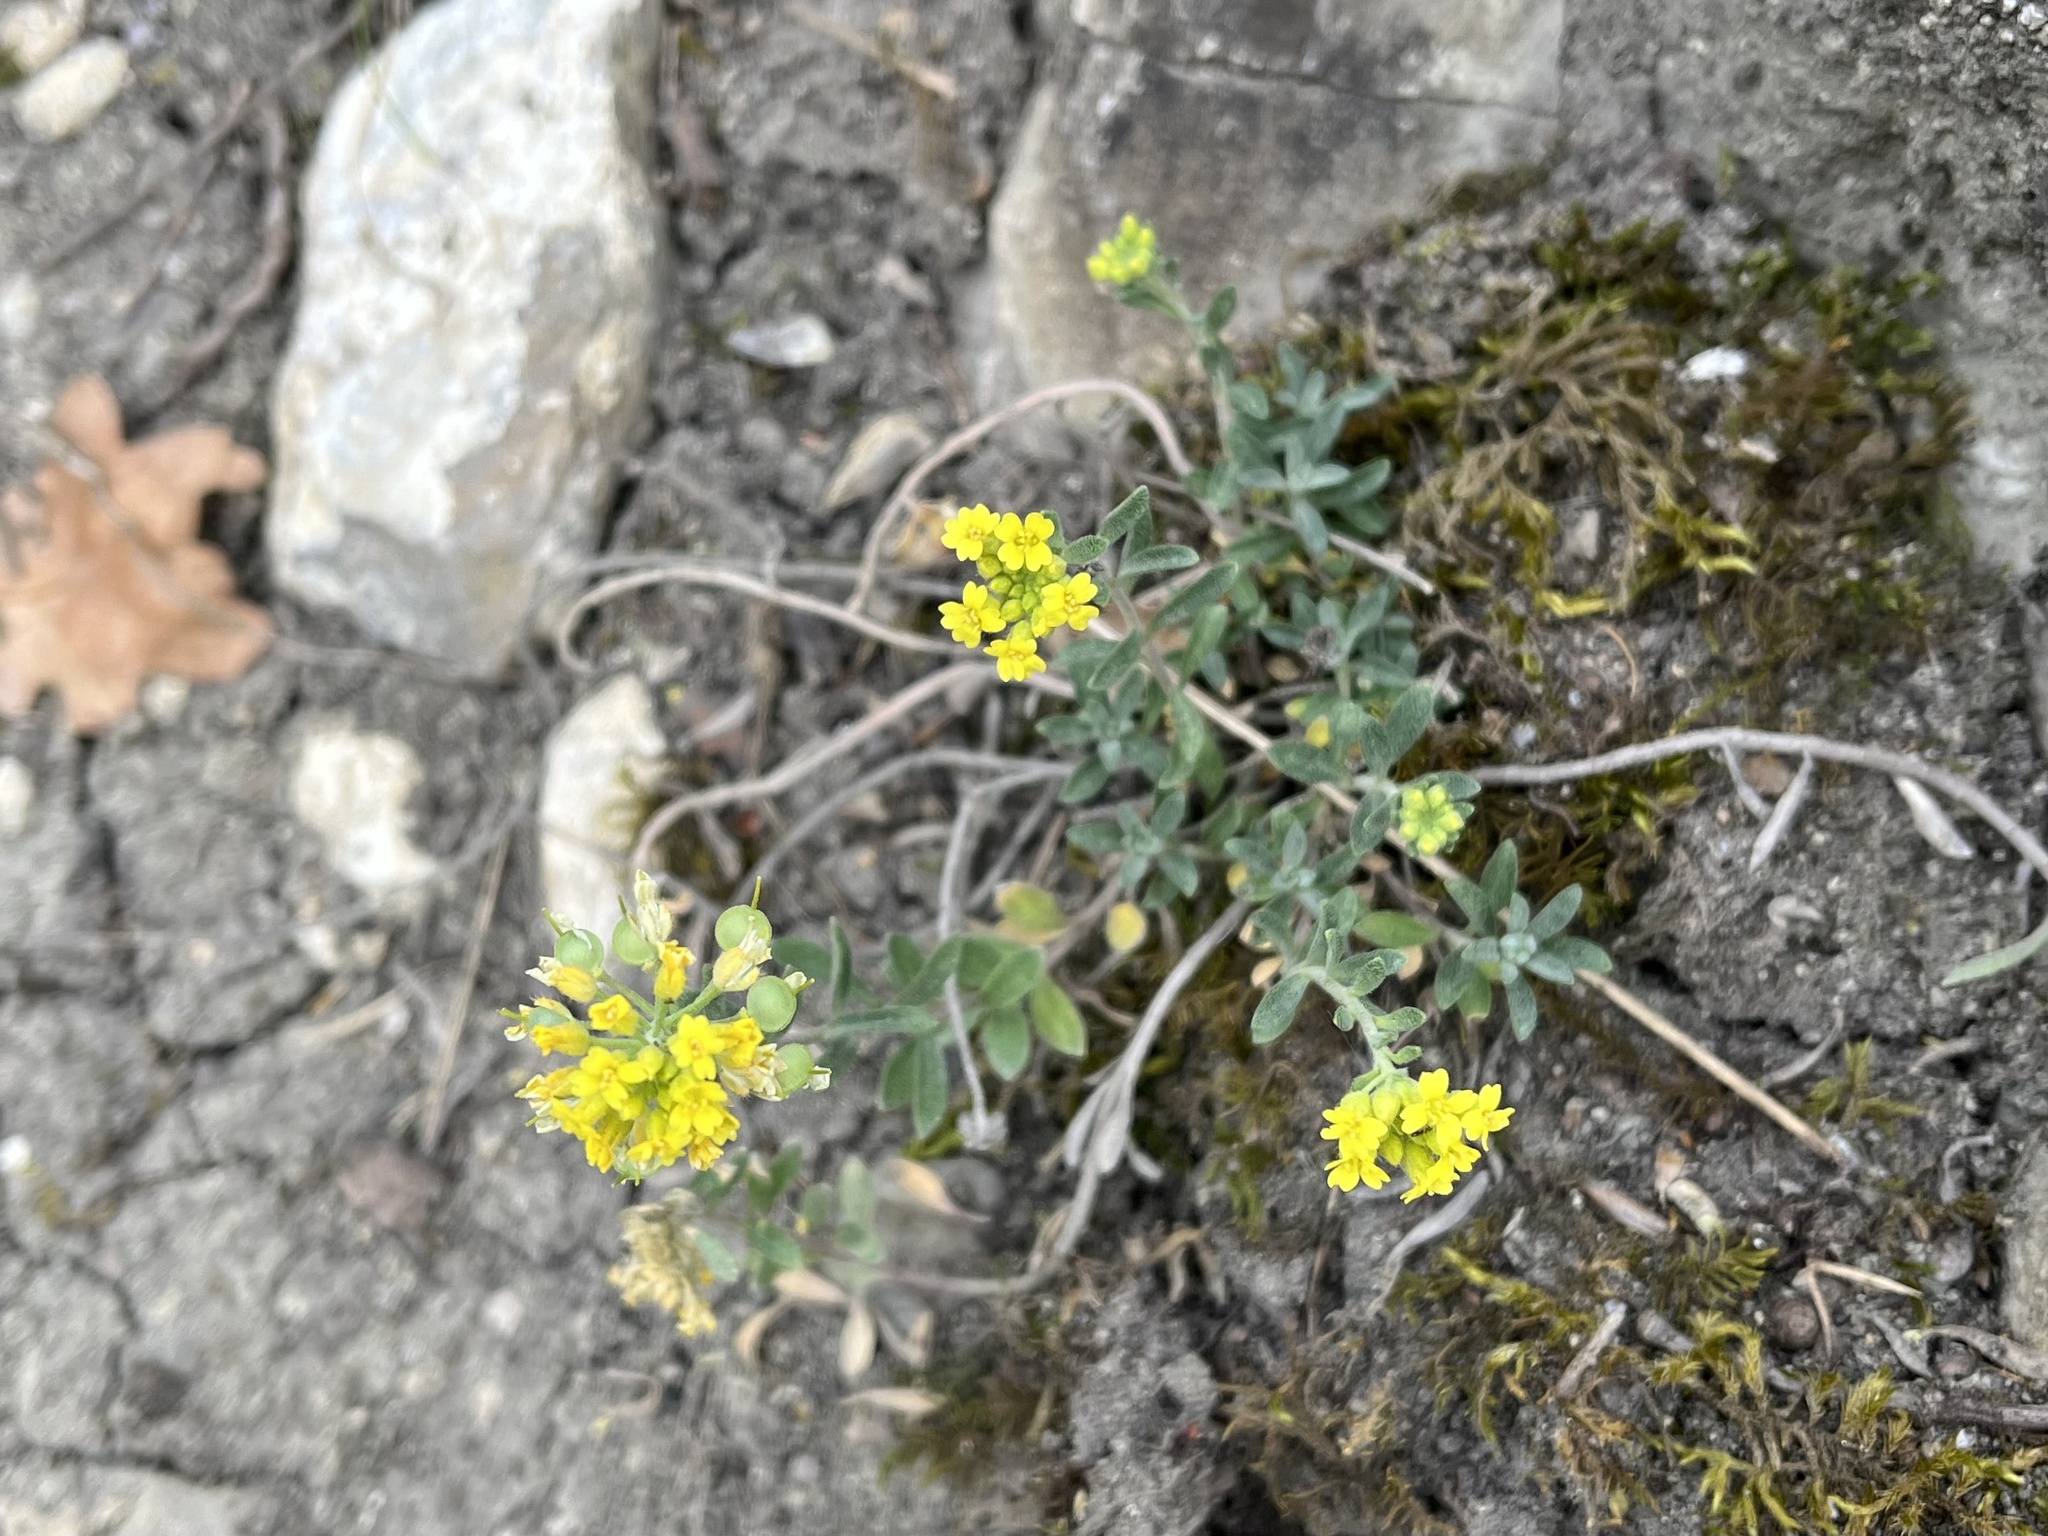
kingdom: Plantae
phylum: Tracheophyta
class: Magnoliopsida
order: Brassicales
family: Brassicaceae
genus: Alyssum
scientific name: Alyssum gmelinii
